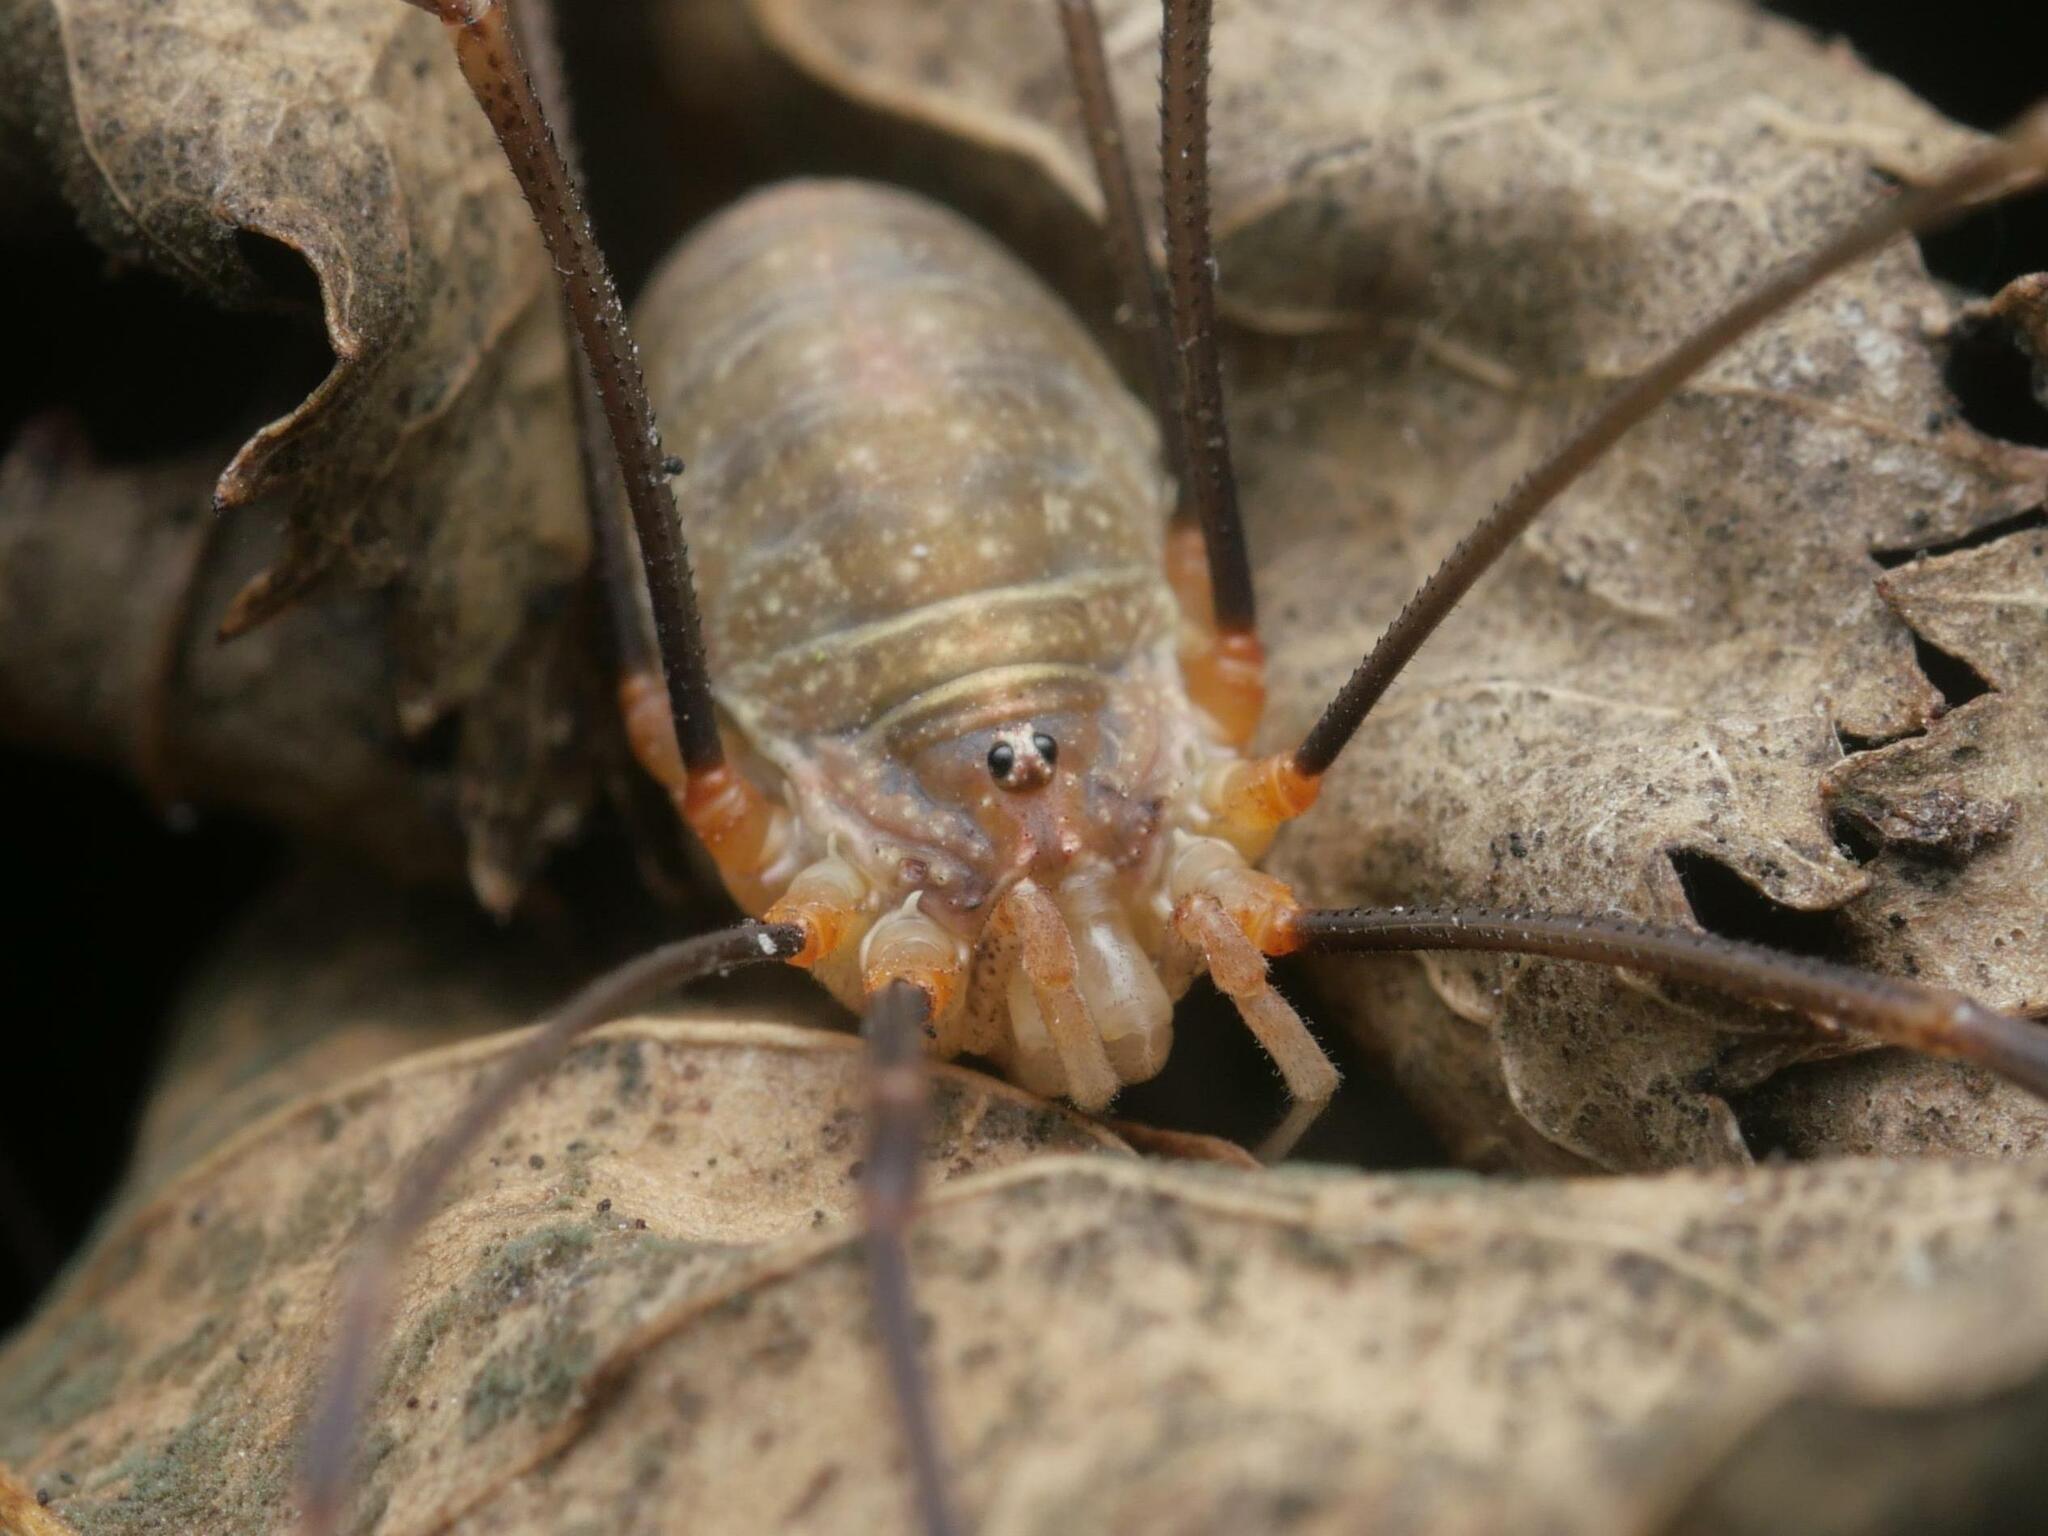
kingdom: Animalia
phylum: Arthropoda
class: Arachnida
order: Opiliones
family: Phalangiidae
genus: Opilio
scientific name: Opilio canestrinii
